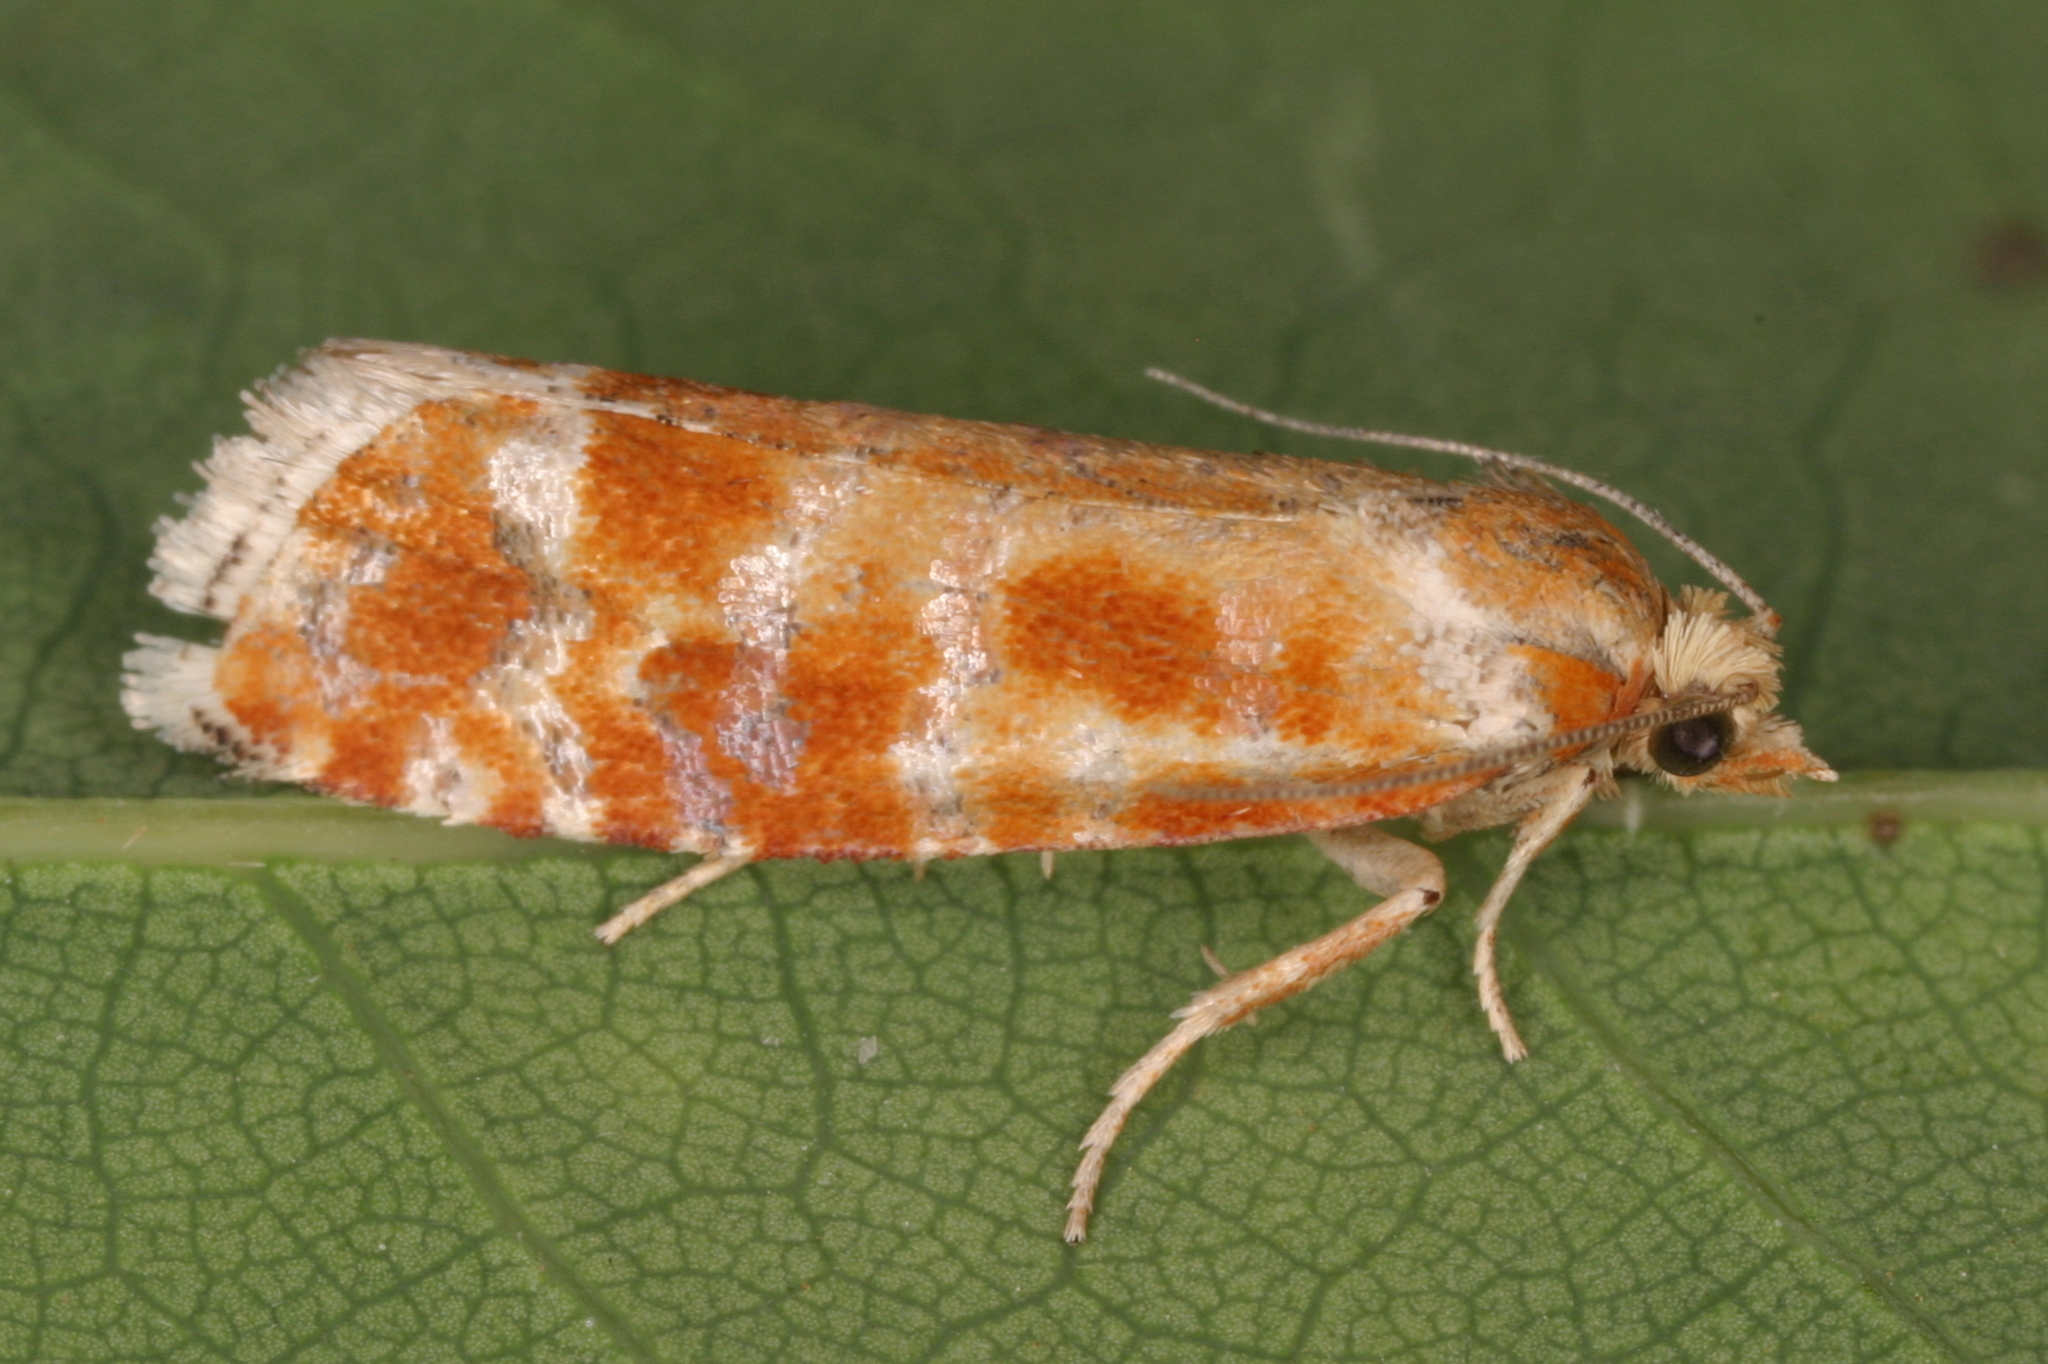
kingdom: Animalia
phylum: Arthropoda
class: Insecta
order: Lepidoptera
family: Tortricidae
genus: Rhyacionia
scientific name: Rhyacionia buoliana
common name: European pine shoot moth
